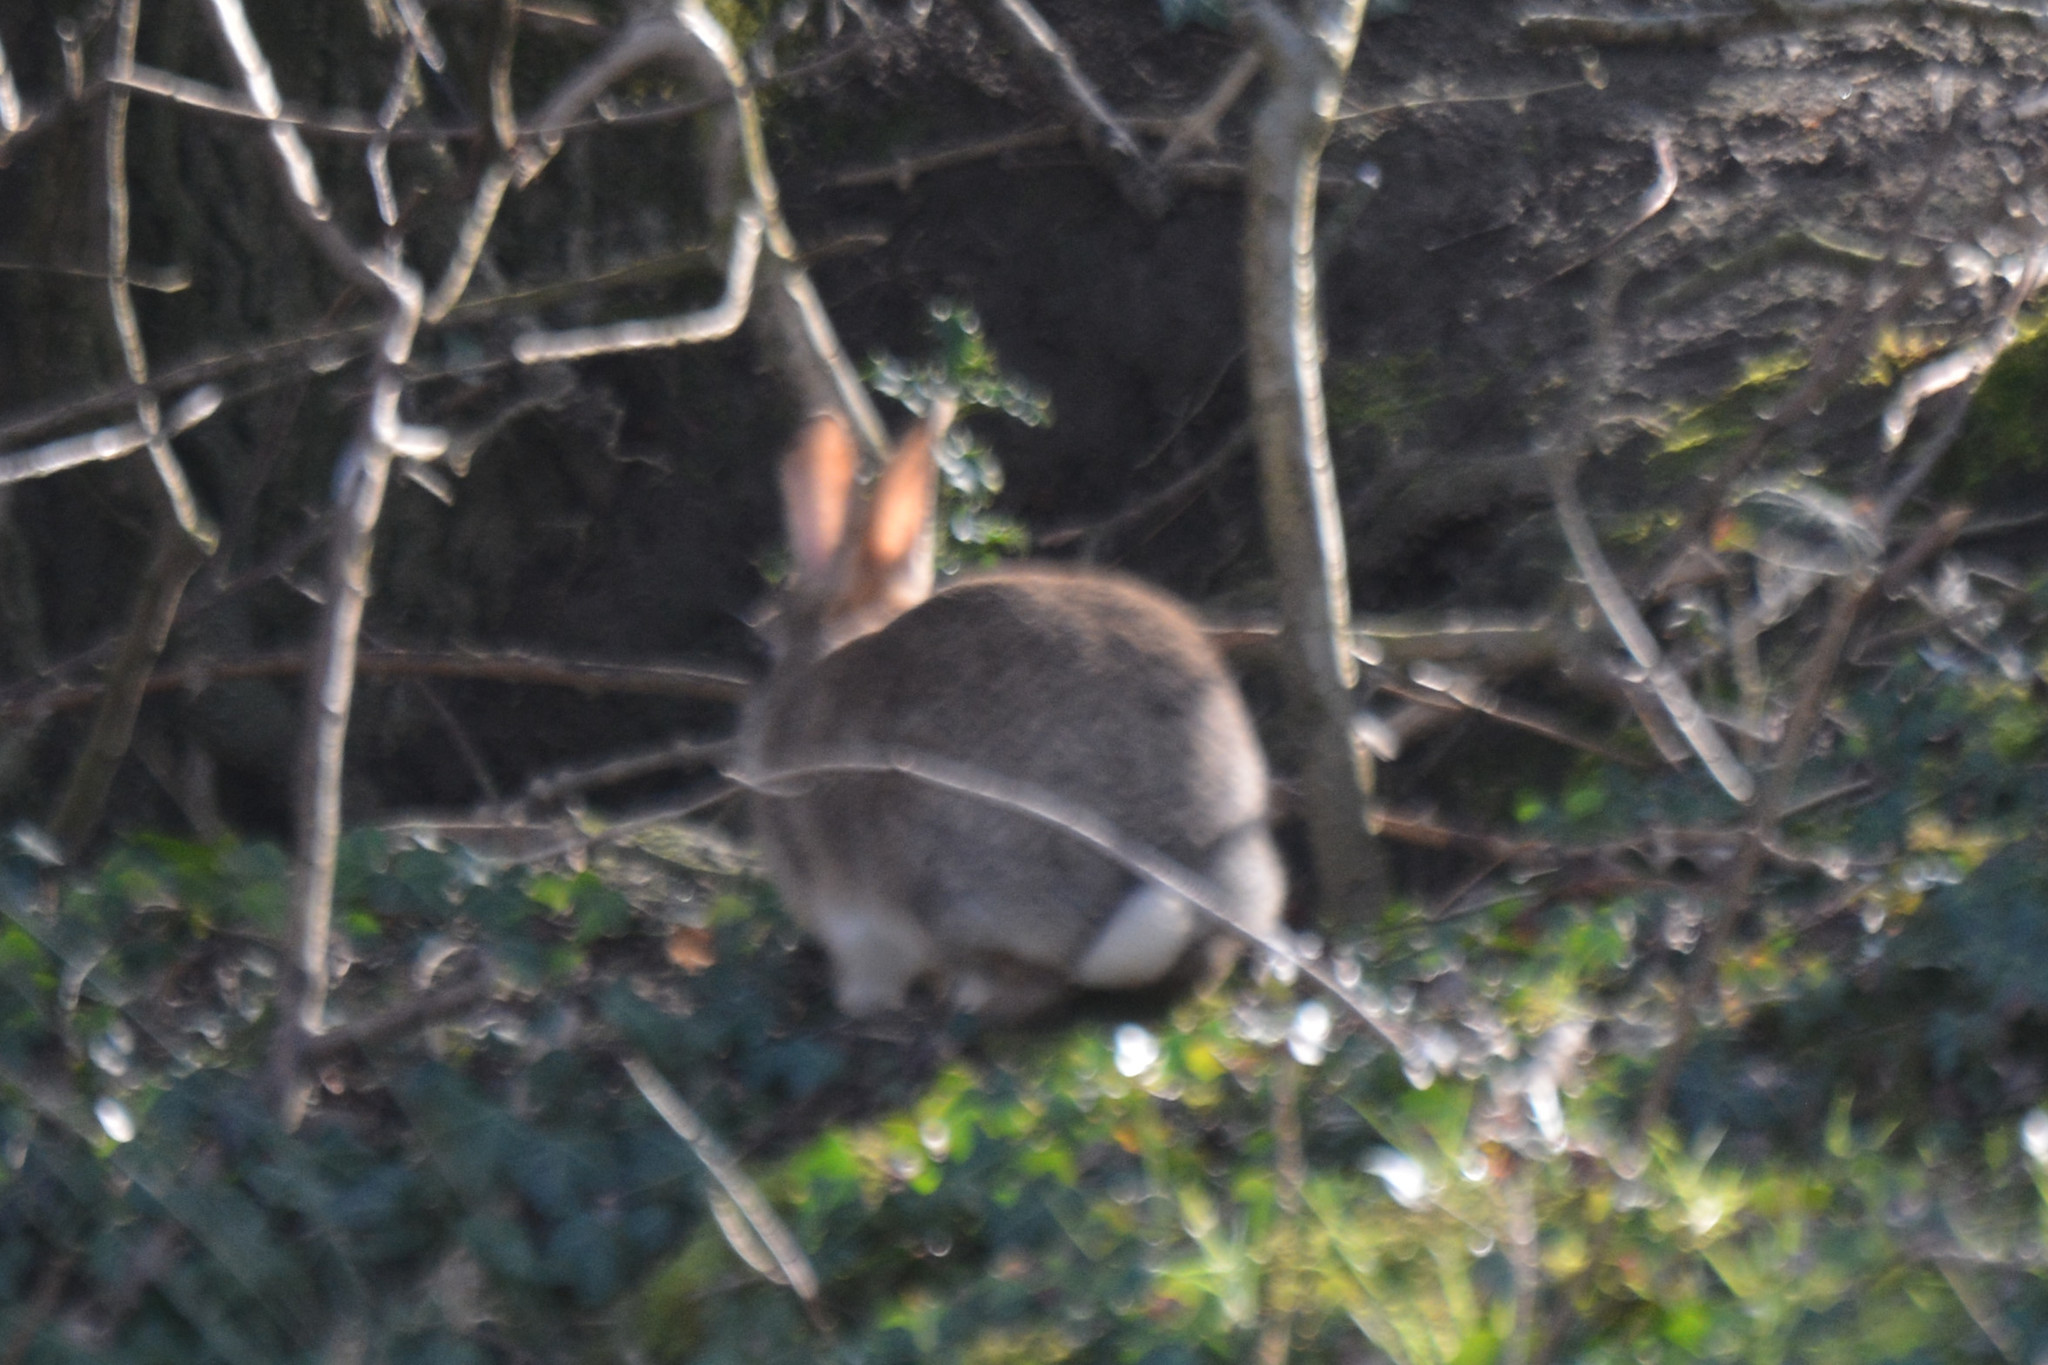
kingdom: Animalia
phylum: Chordata
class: Mammalia
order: Lagomorpha
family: Leporidae
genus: Oryctolagus
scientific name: Oryctolagus cuniculus
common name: European rabbit
